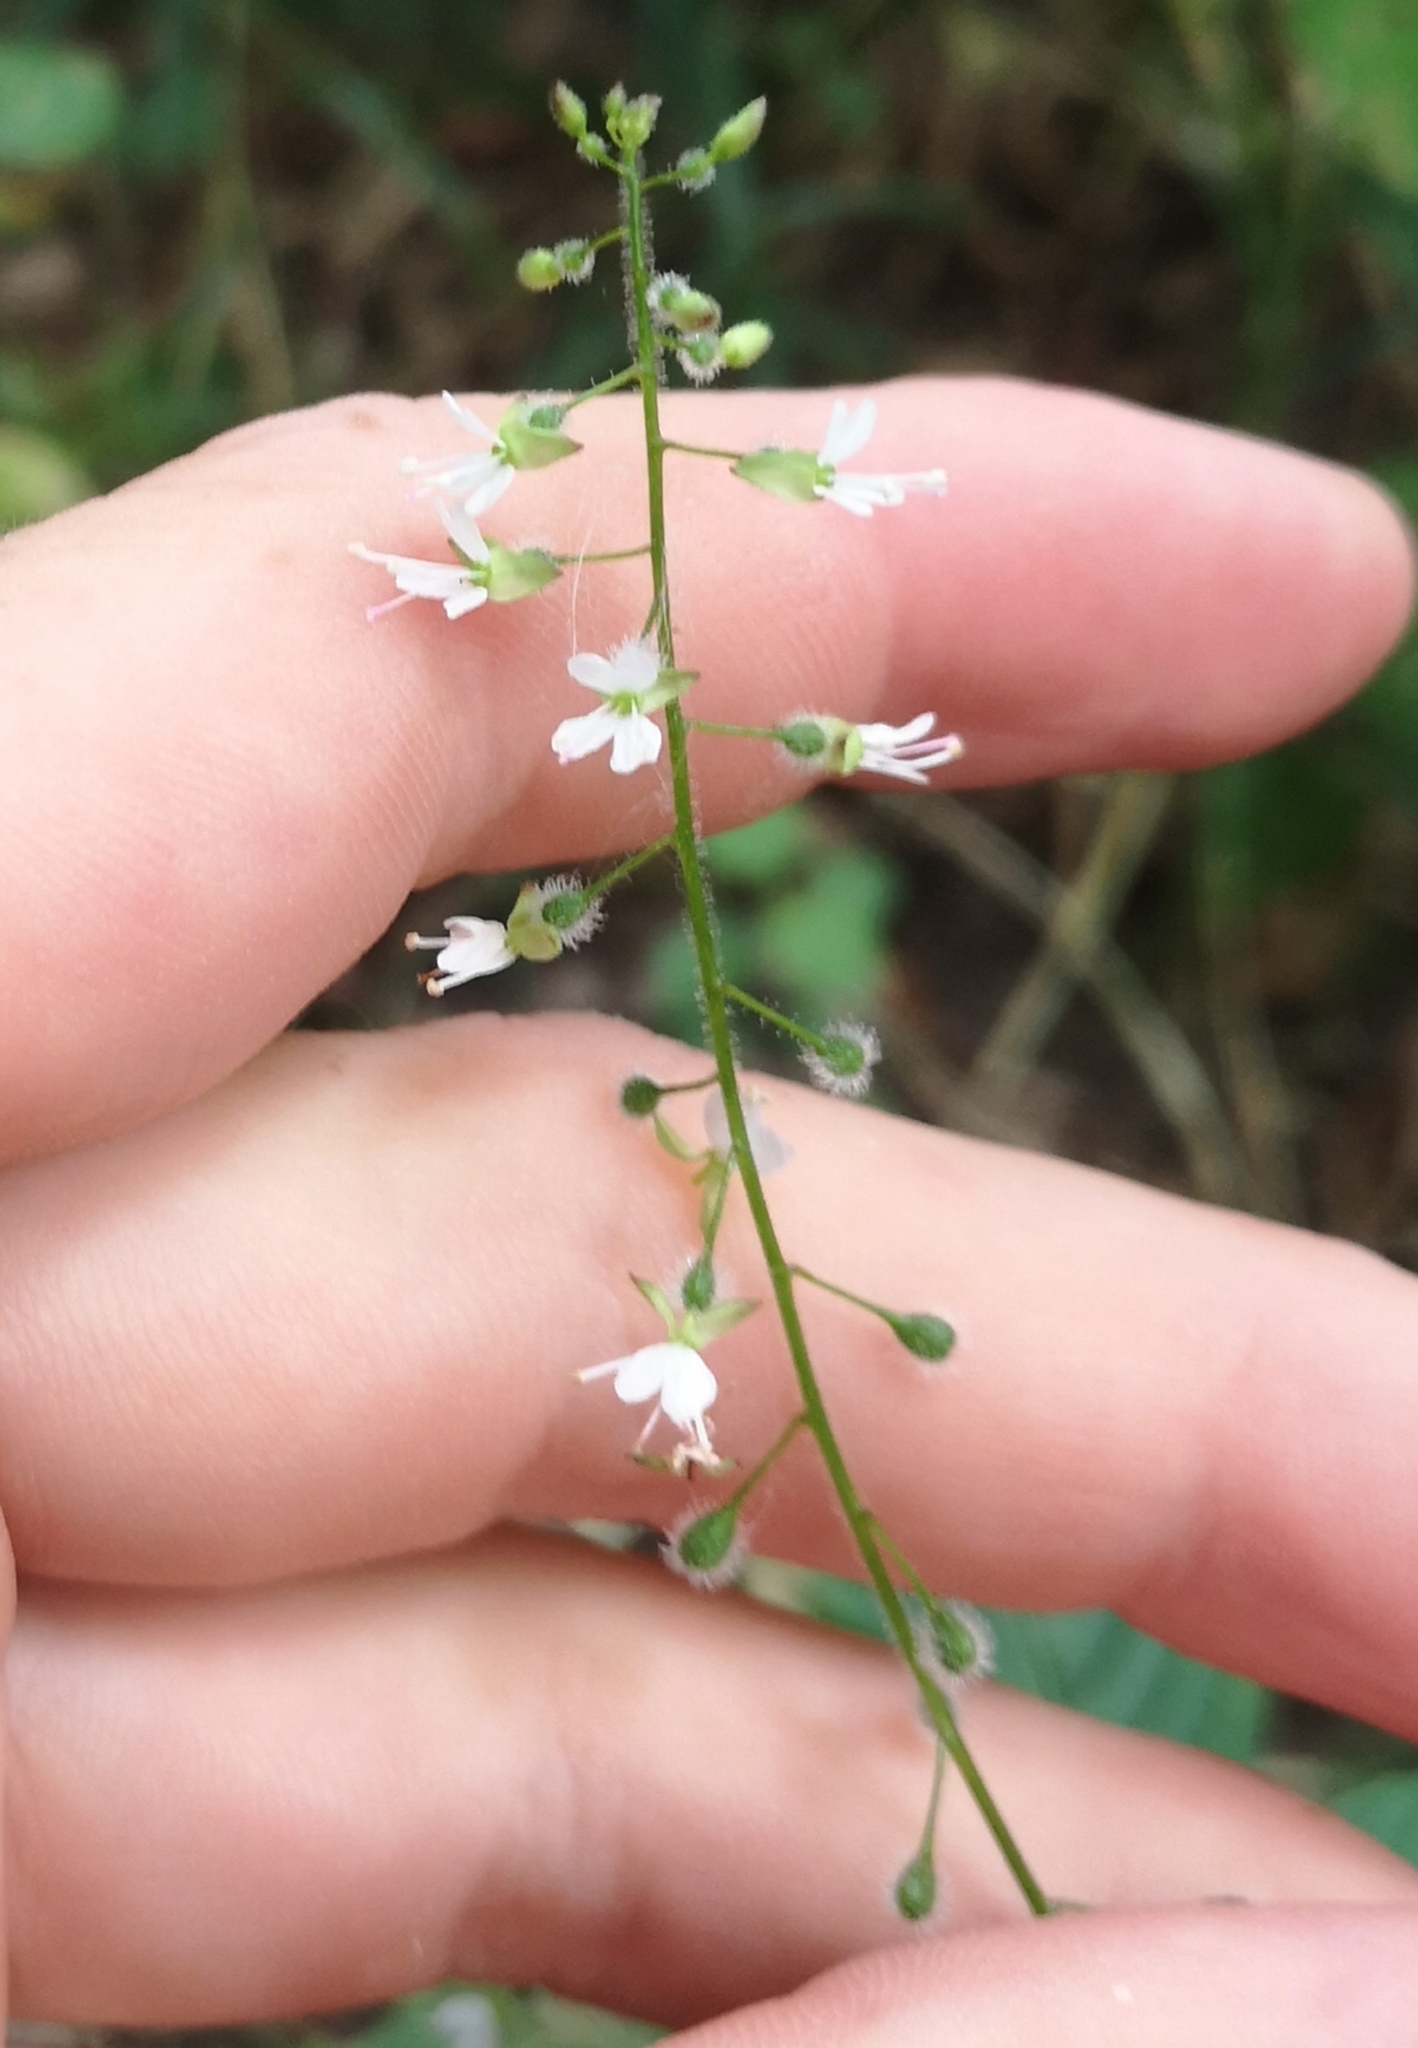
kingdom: Plantae
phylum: Tracheophyta
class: Magnoliopsida
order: Myrtales
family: Onagraceae
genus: Circaea
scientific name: Circaea lutetiana
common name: Enchanter's-nightshade
